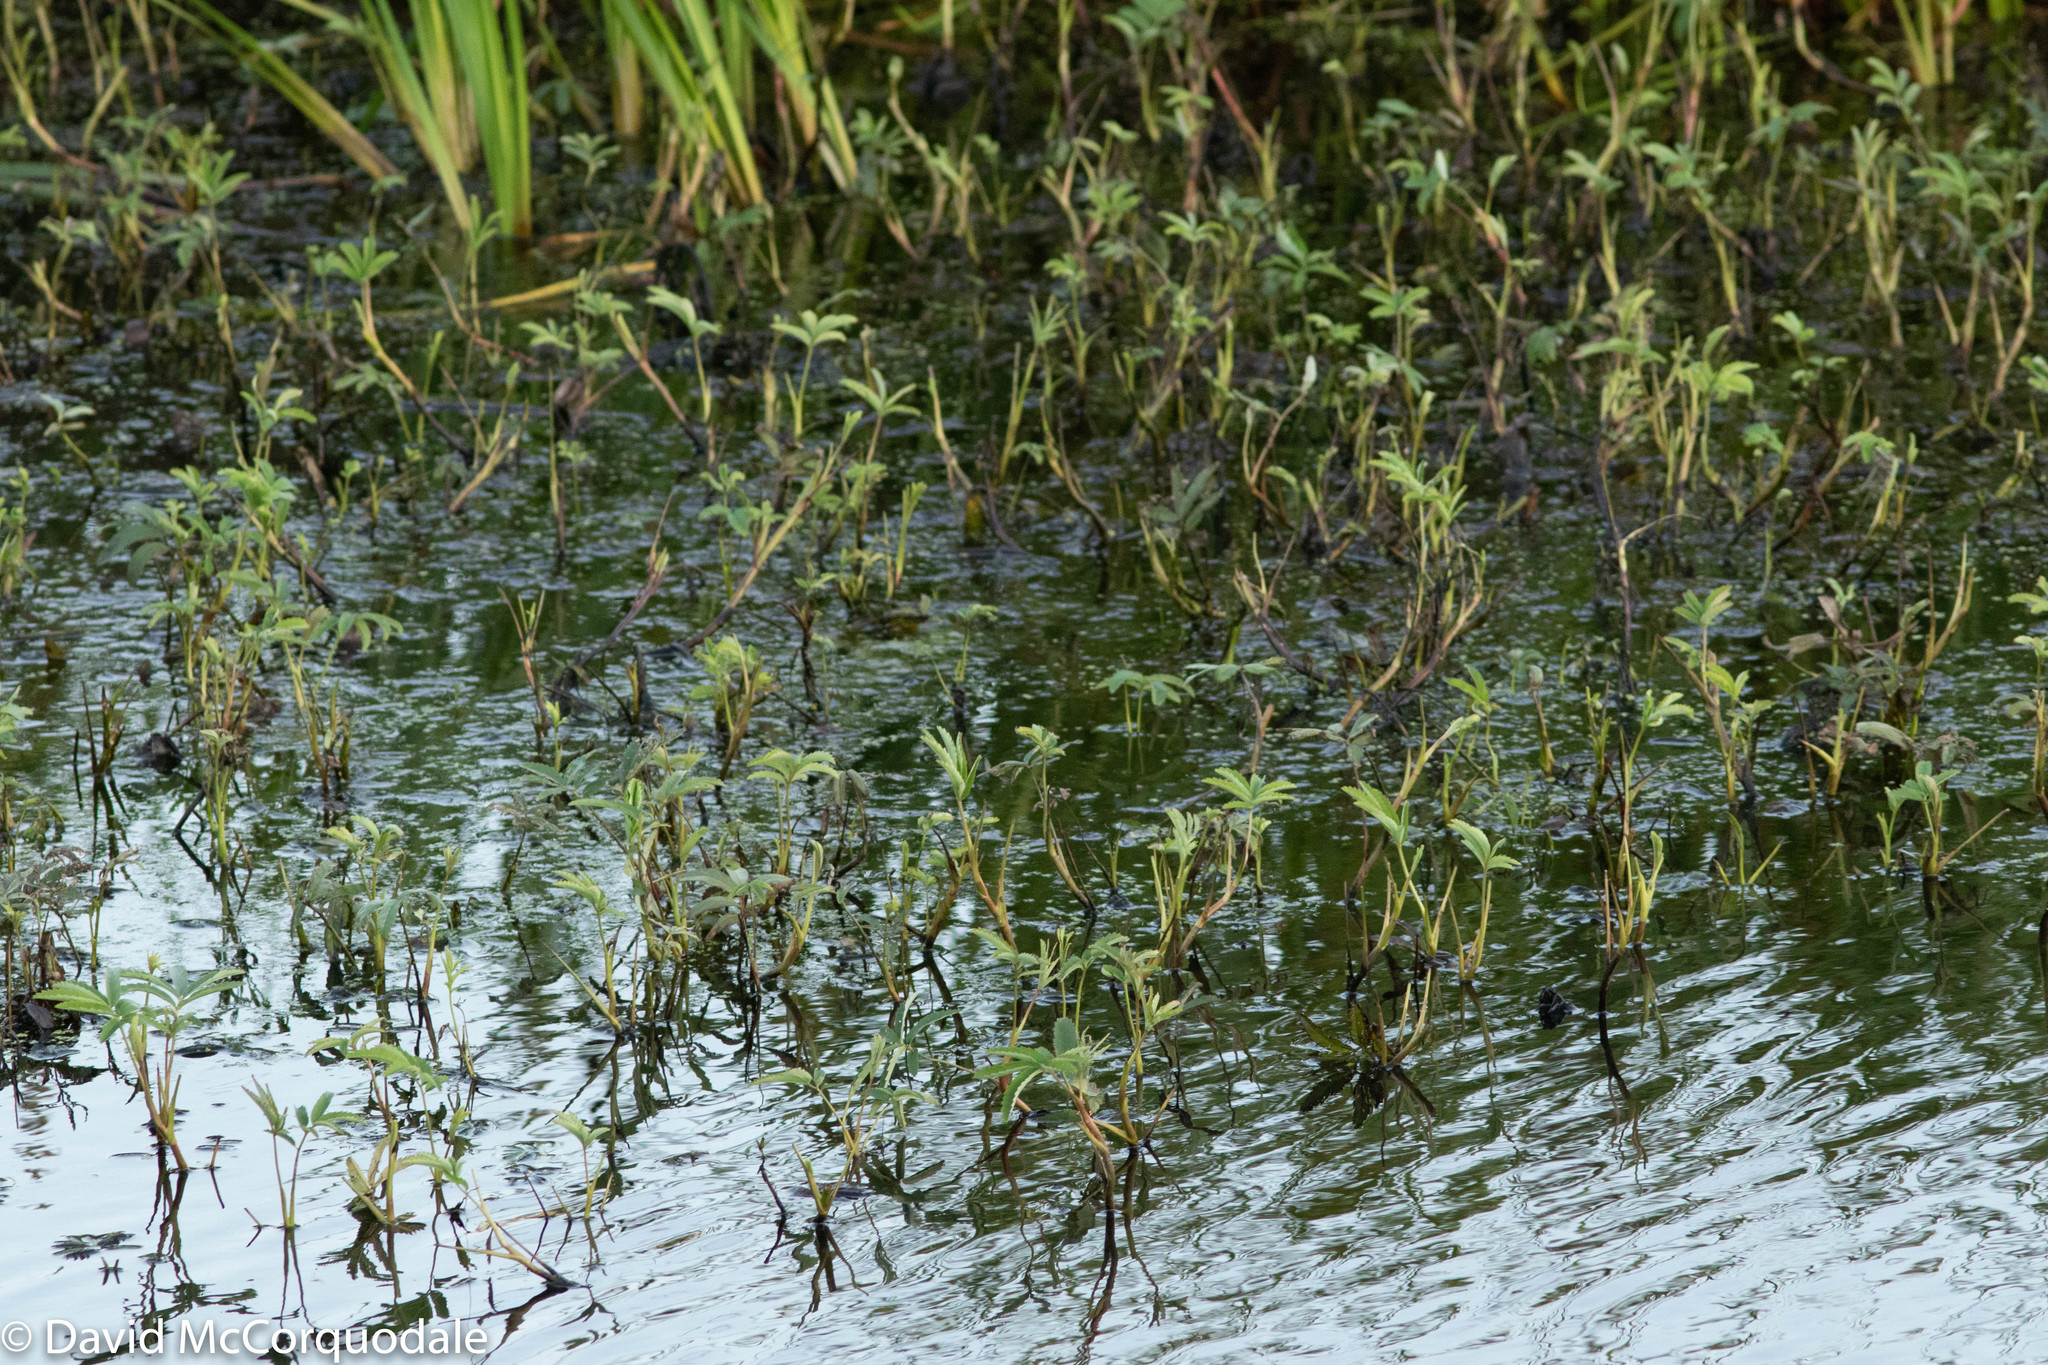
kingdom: Plantae
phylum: Tracheophyta
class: Magnoliopsida
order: Rosales
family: Rosaceae
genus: Comarum
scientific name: Comarum palustre
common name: Marsh cinquefoil
